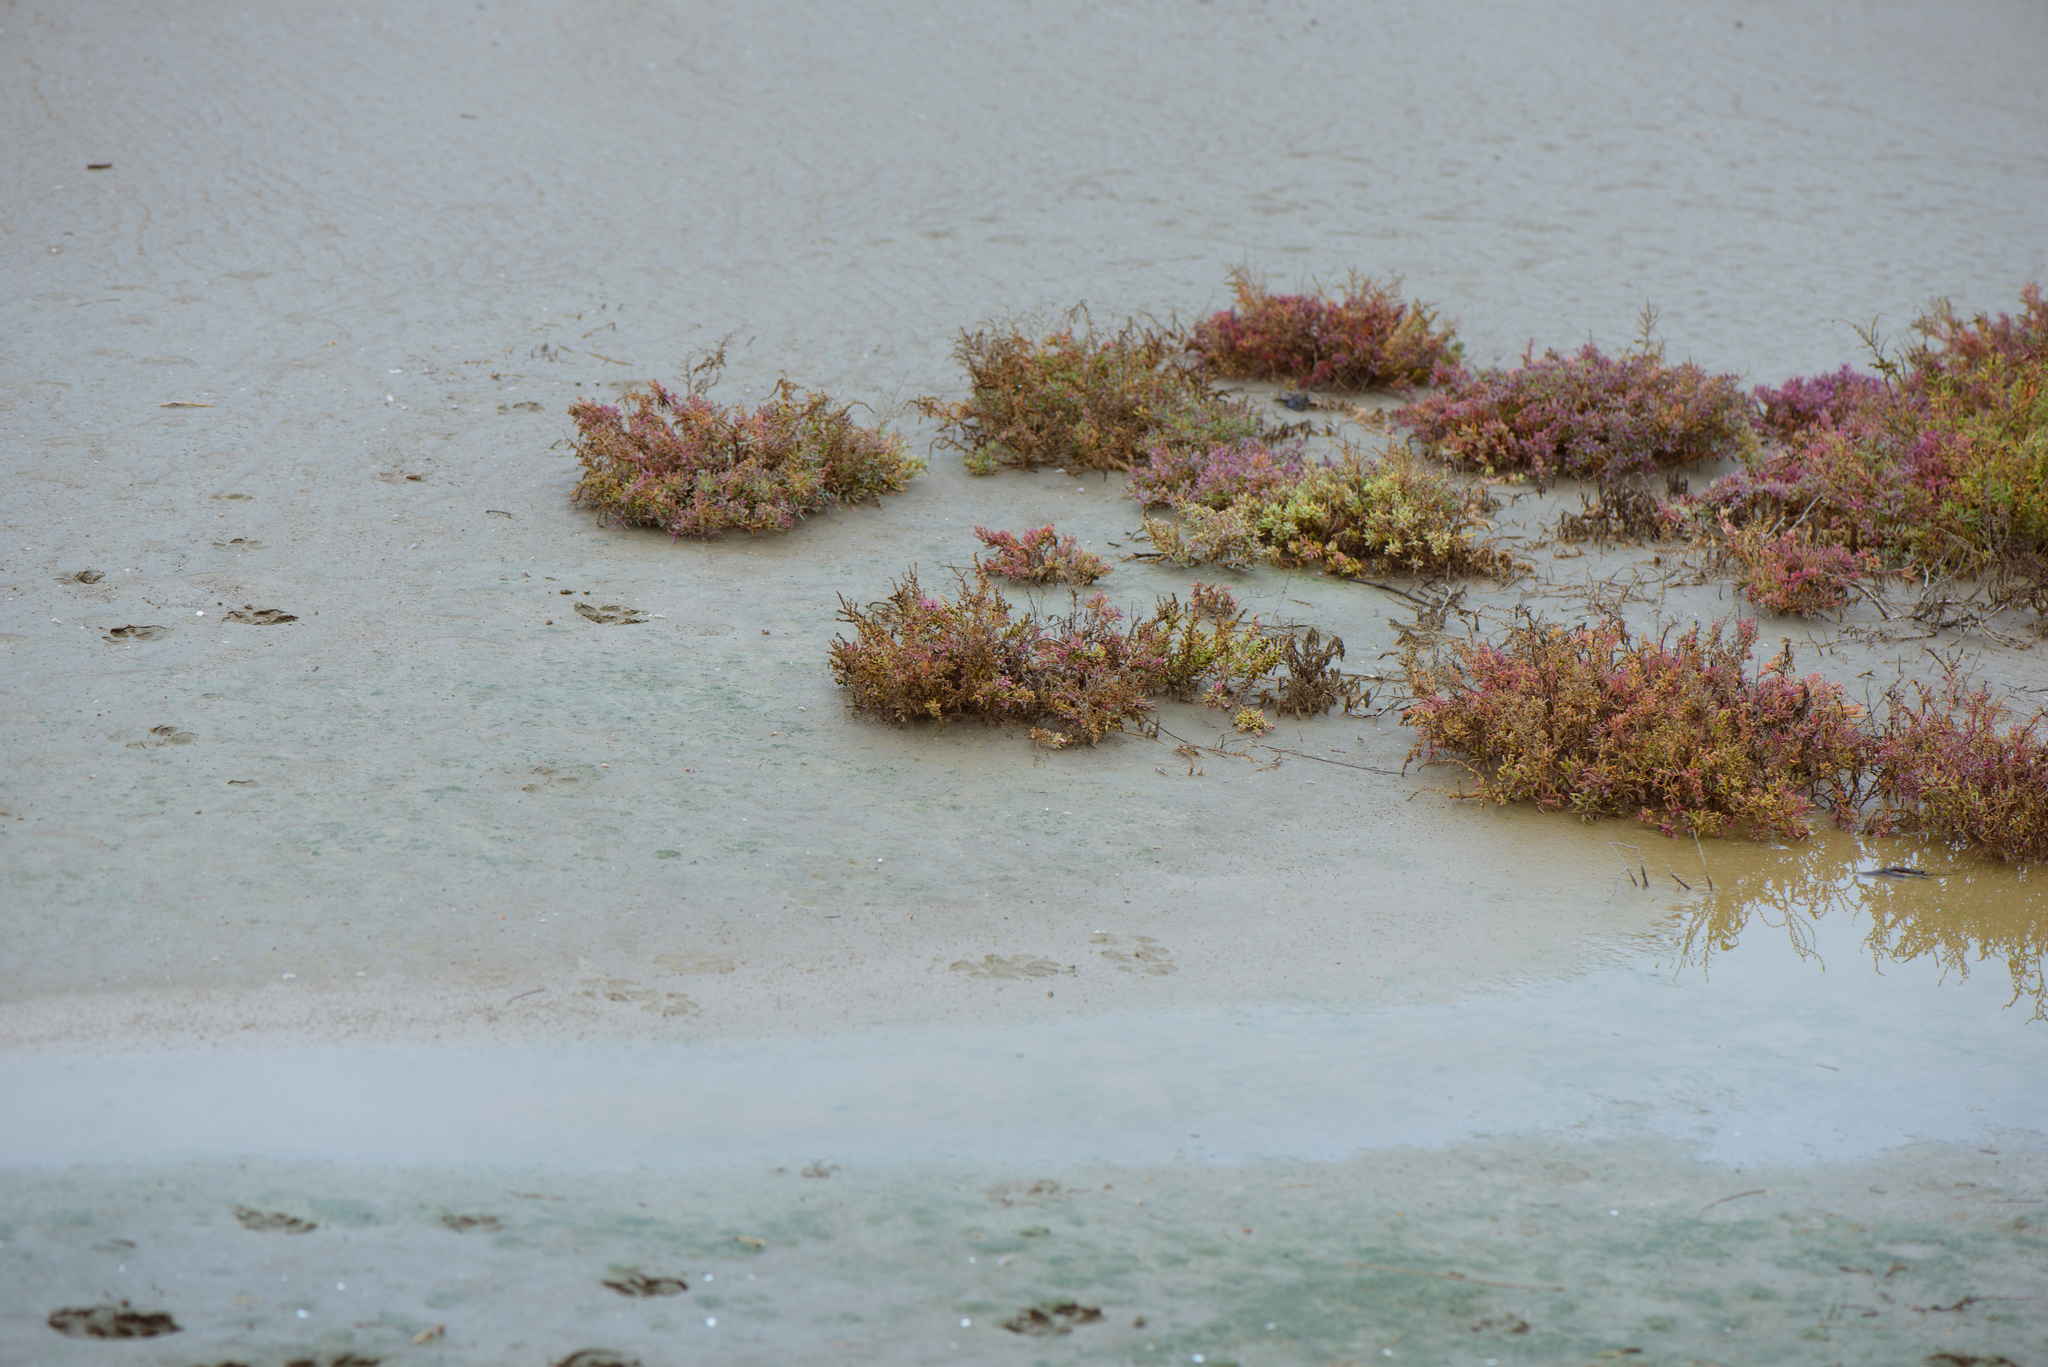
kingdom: Plantae
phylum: Tracheophyta
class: Magnoliopsida
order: Caryophyllales
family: Amaranthaceae
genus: Suaeda
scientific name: Suaeda maritima
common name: Annual sea-blite
